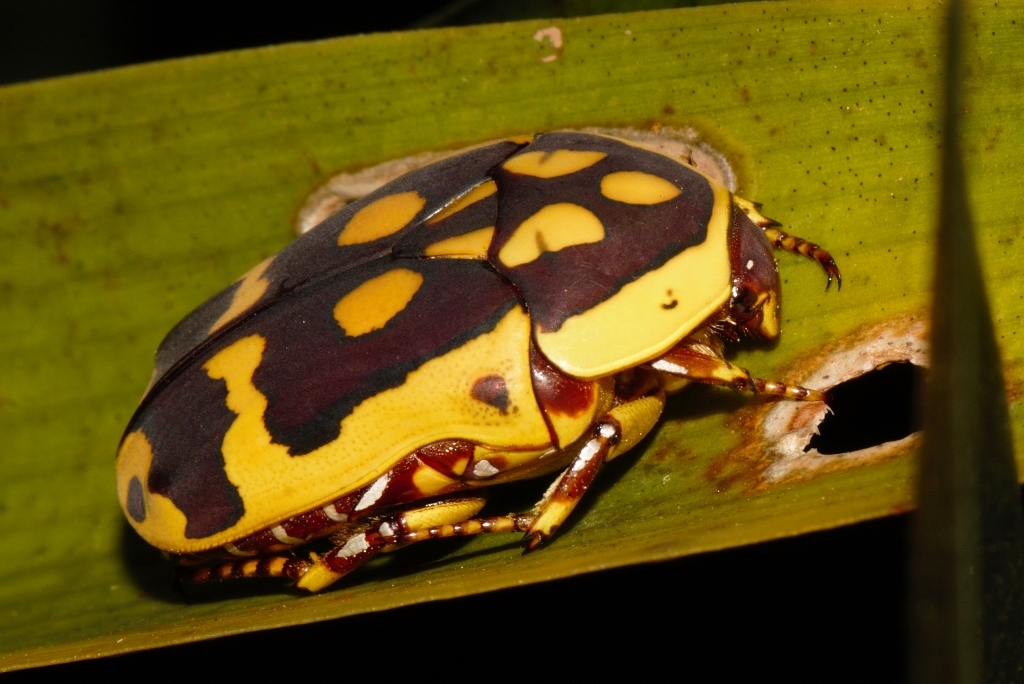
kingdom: Animalia
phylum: Arthropoda
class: Insecta
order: Coleoptera
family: Scarabaeidae
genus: Pachnoda
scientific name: Pachnoda sinuata
